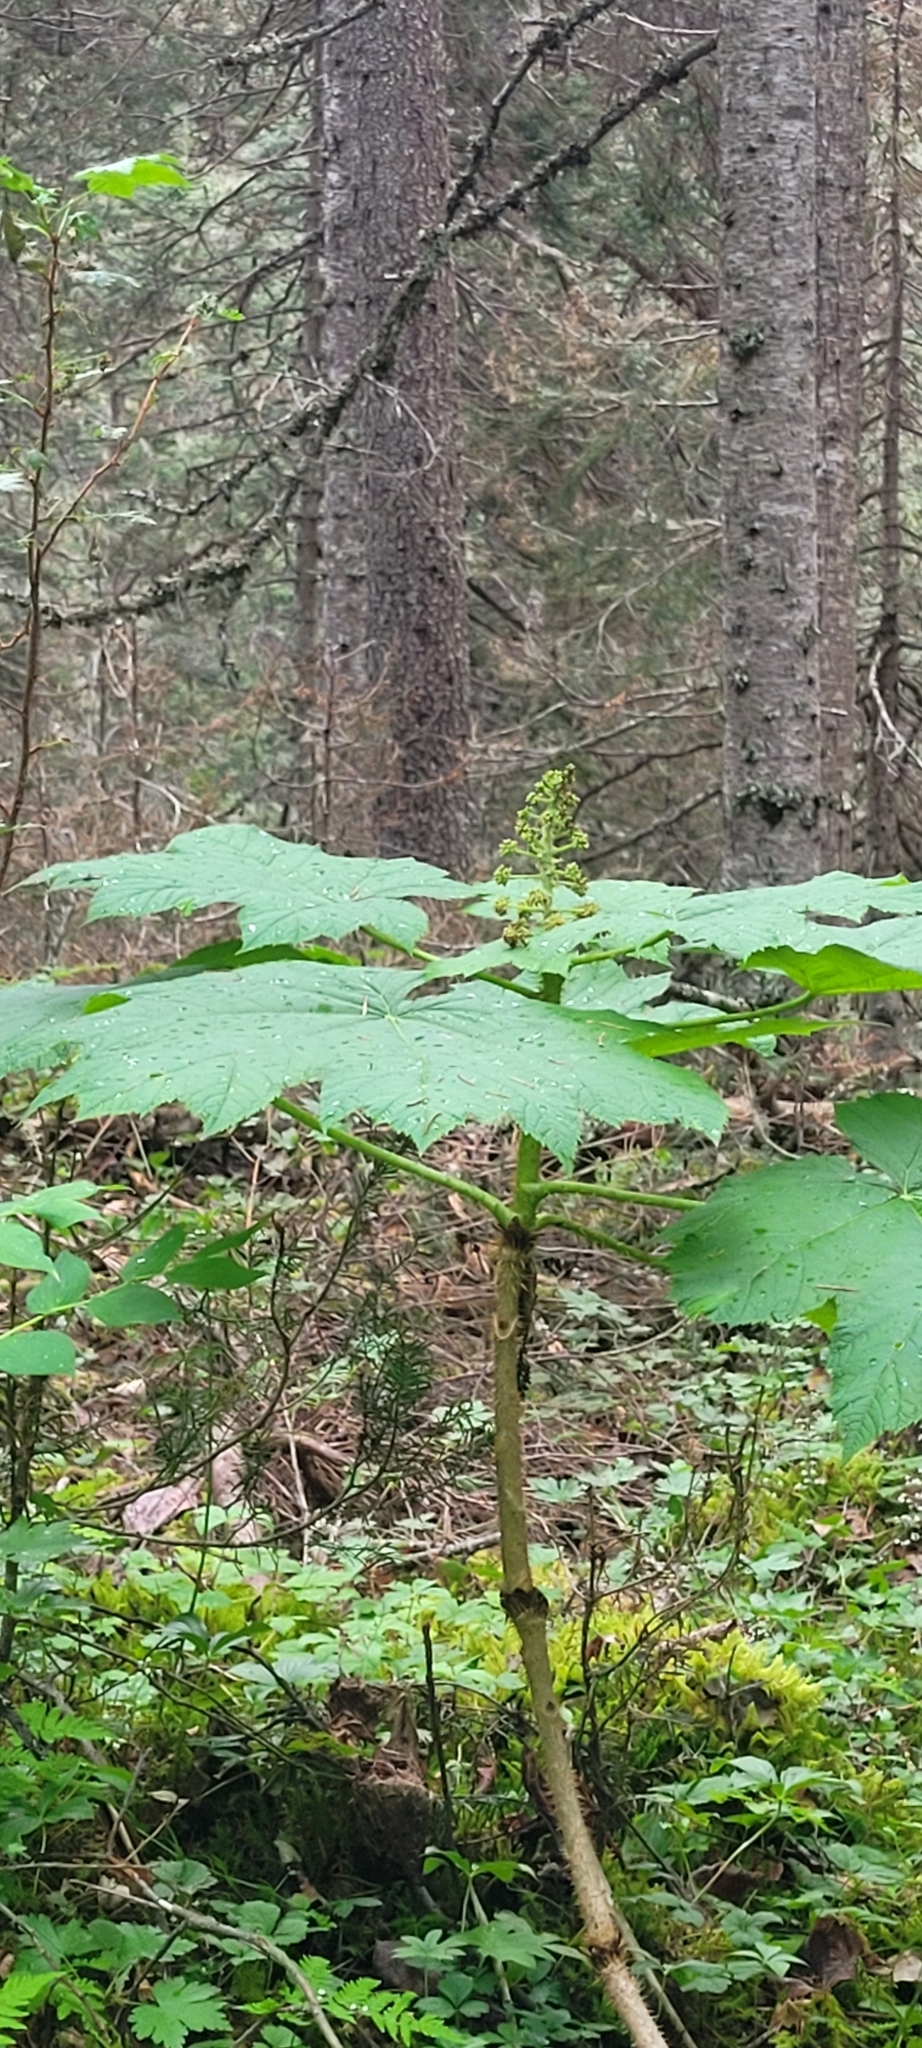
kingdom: Plantae
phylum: Tracheophyta
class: Magnoliopsida
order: Apiales
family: Araliaceae
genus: Oplopanax
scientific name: Oplopanax horridus
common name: Devil's walking-stick
